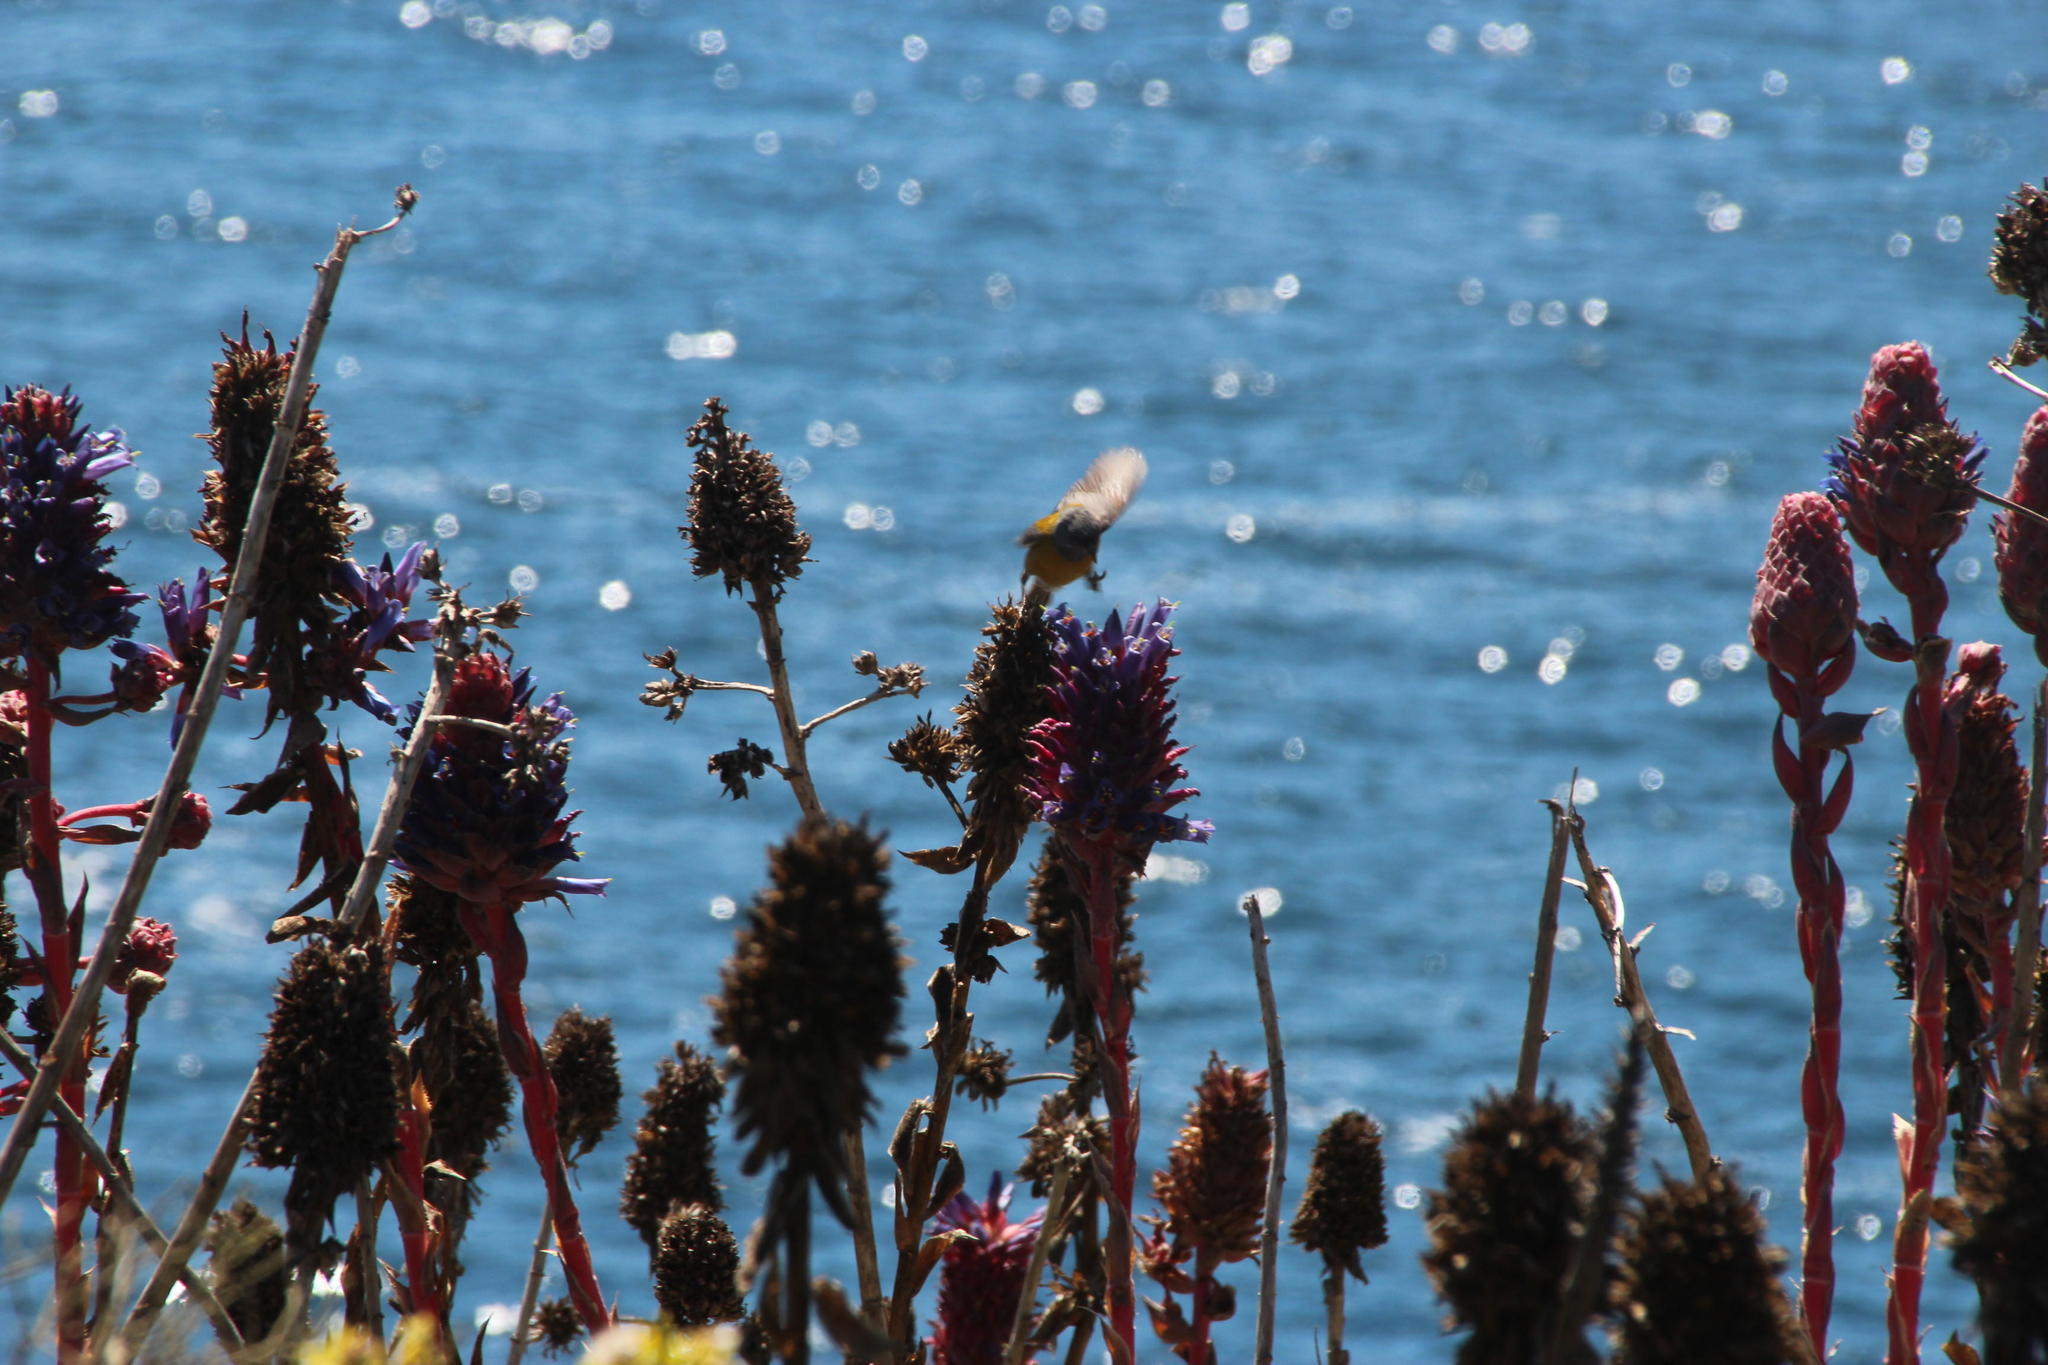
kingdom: Plantae
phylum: Tracheophyta
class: Liliopsida
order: Poales
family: Bromeliaceae
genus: Puya
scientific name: Puya venusta
